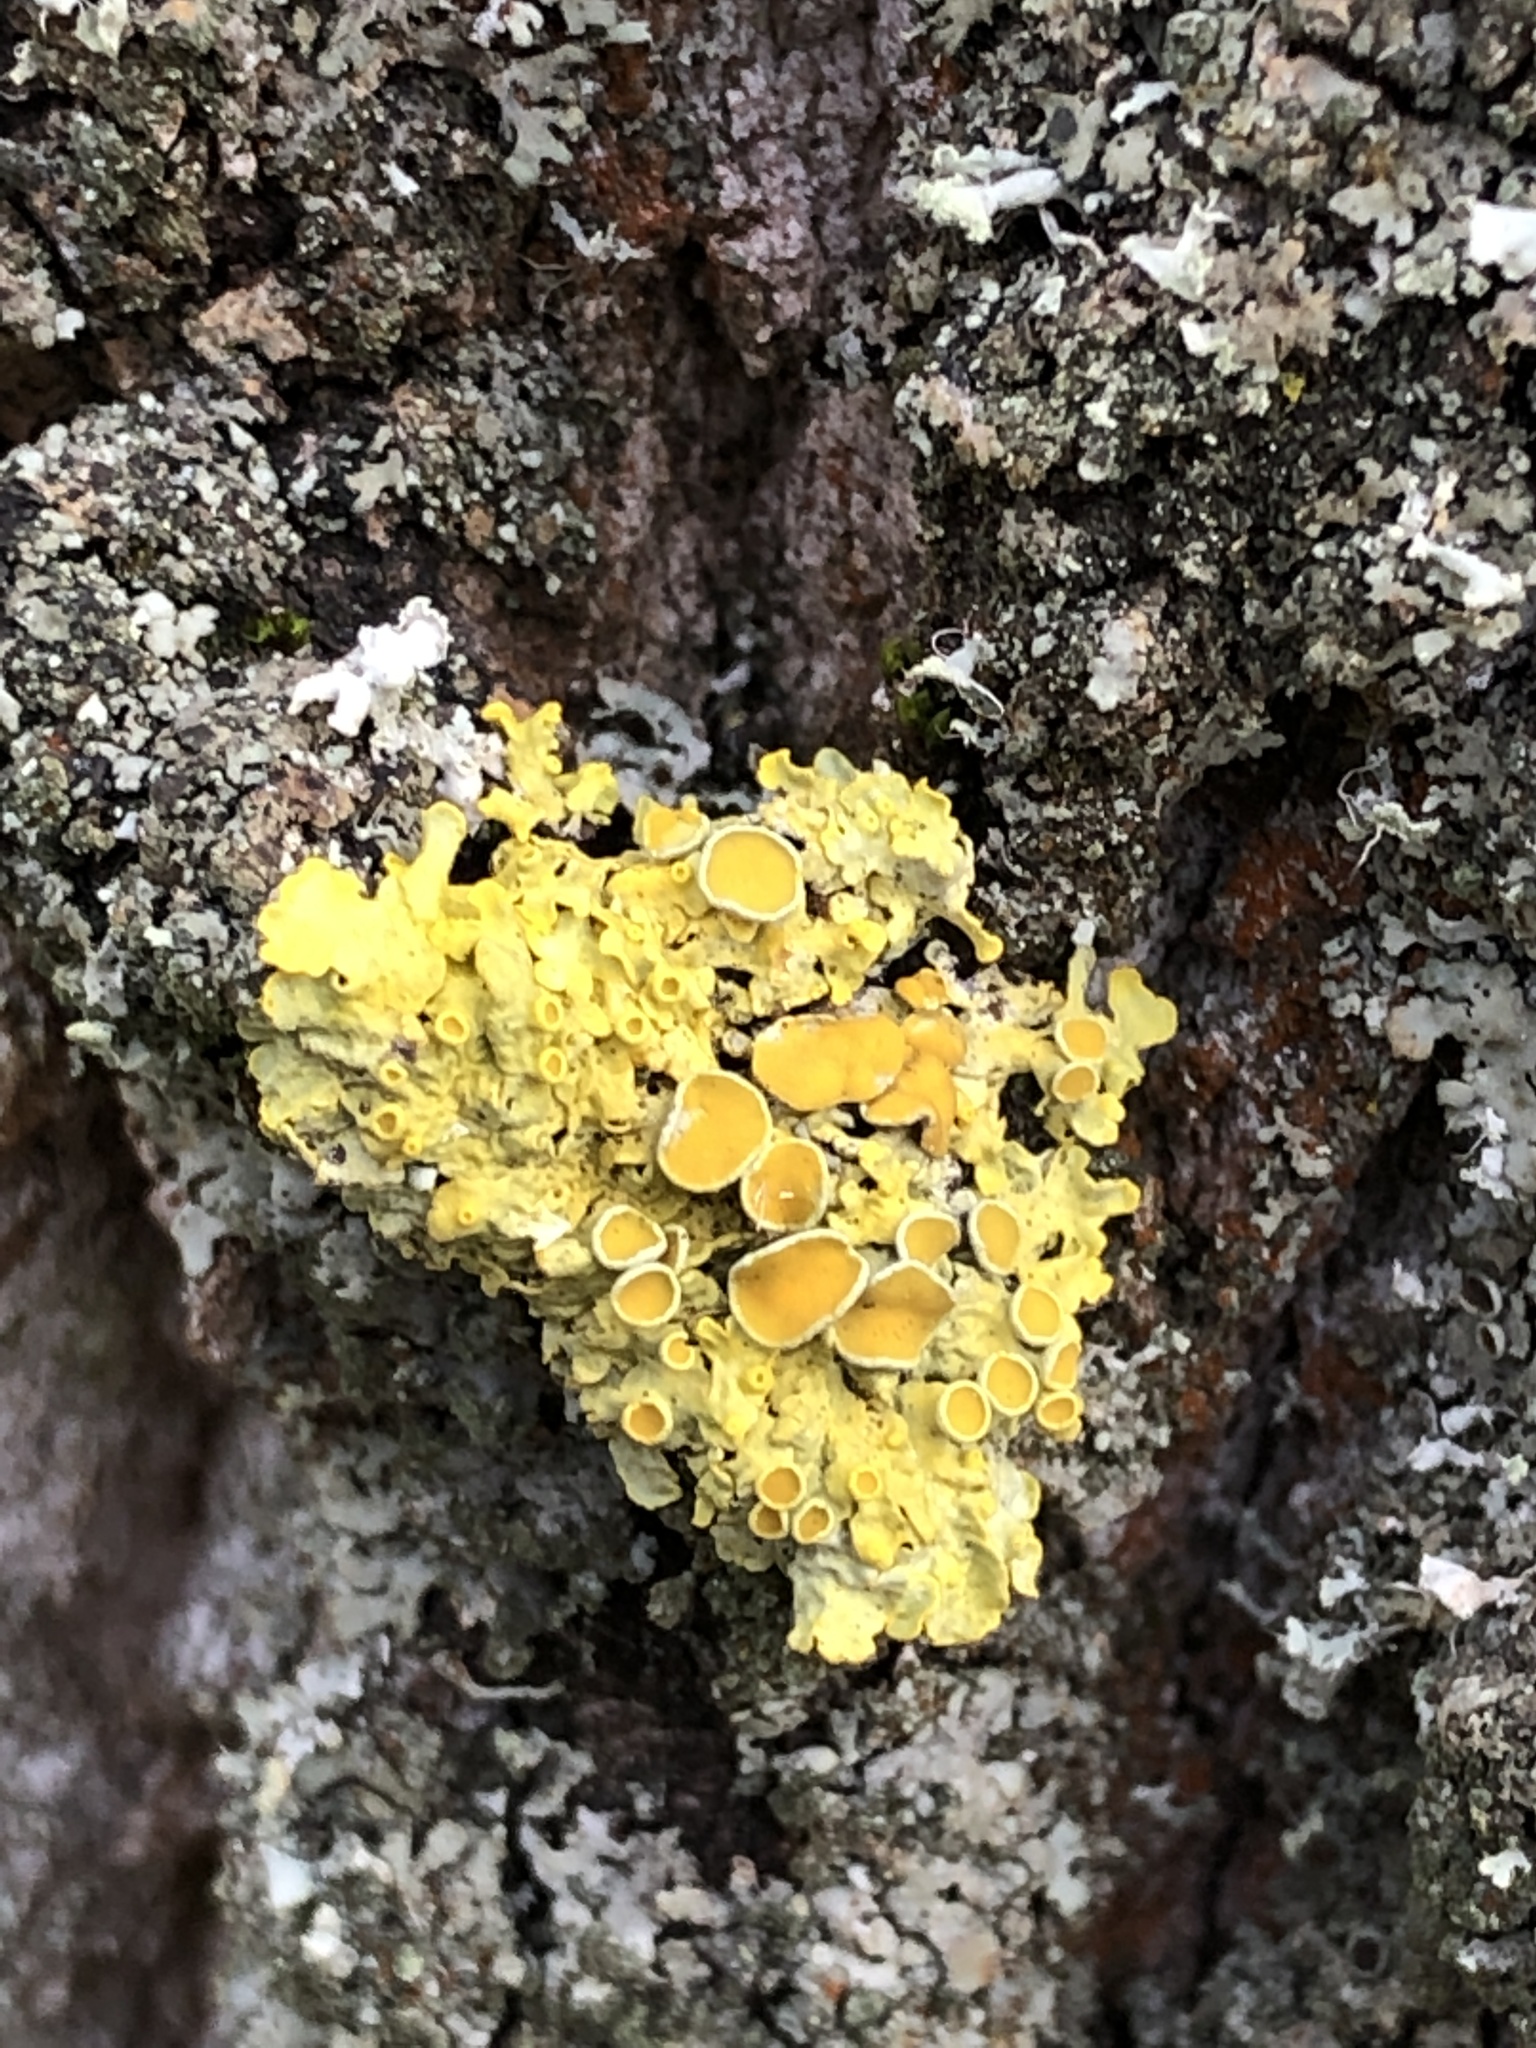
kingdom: Fungi
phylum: Ascomycota
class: Lecanoromycetes
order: Teloschistales
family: Teloschistaceae
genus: Xanthoria
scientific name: Xanthoria parietina
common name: Common orange lichen
